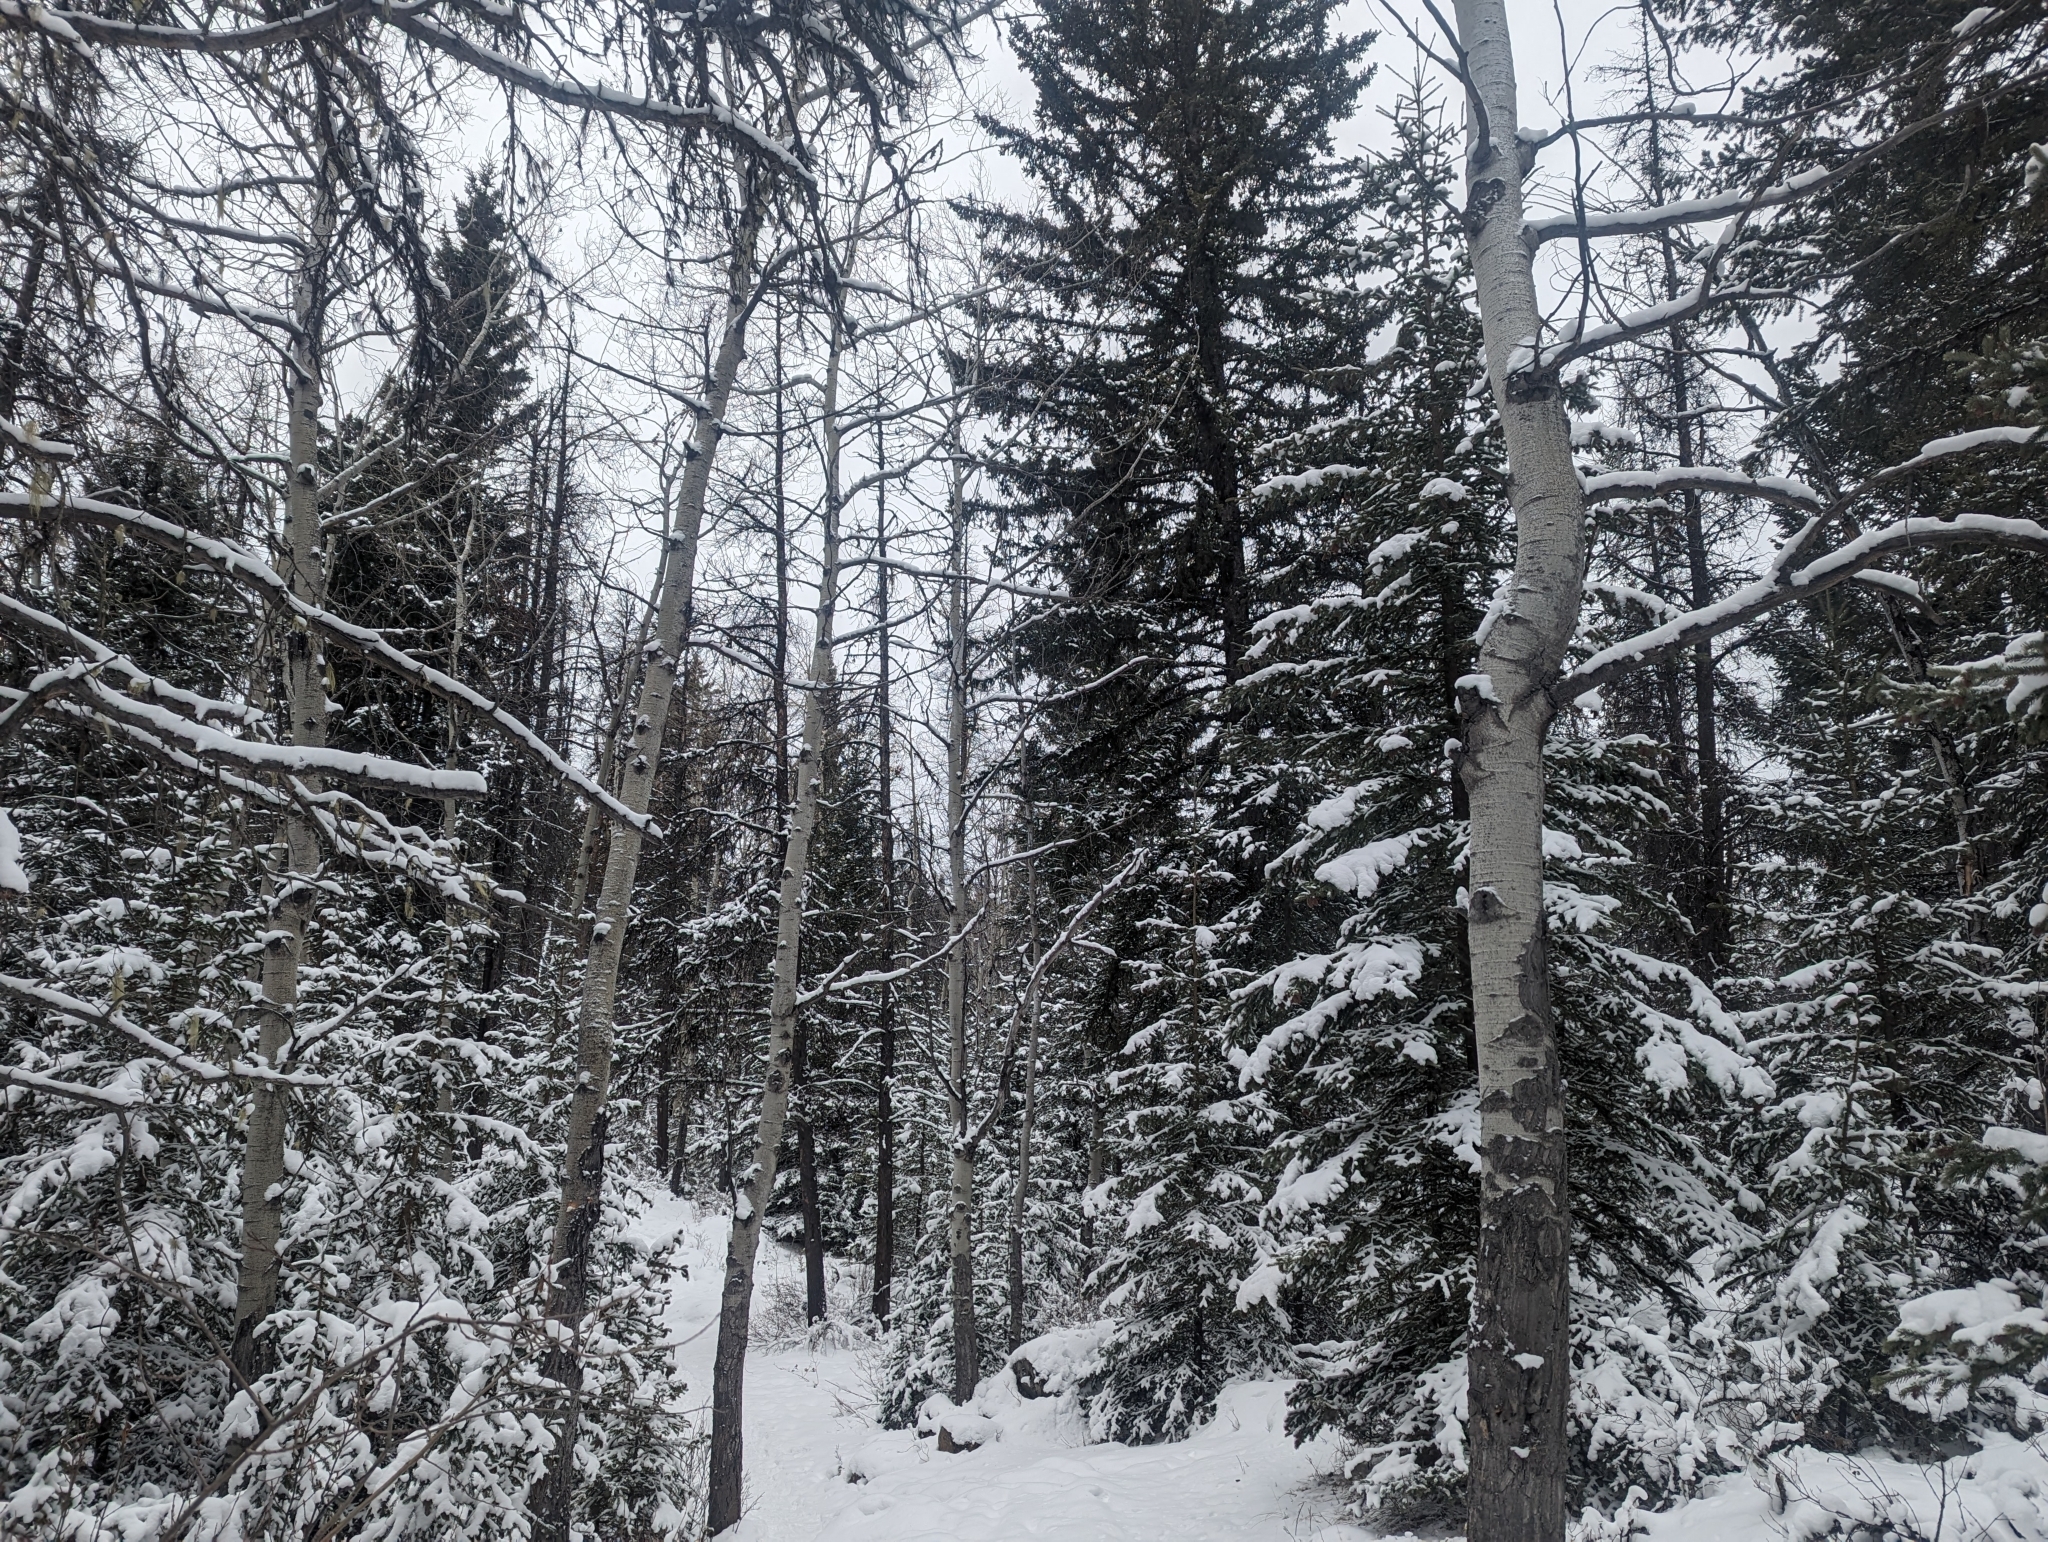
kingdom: Plantae
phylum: Tracheophyta
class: Magnoliopsida
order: Malpighiales
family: Salicaceae
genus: Populus
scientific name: Populus tremuloides
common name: Quaking aspen
